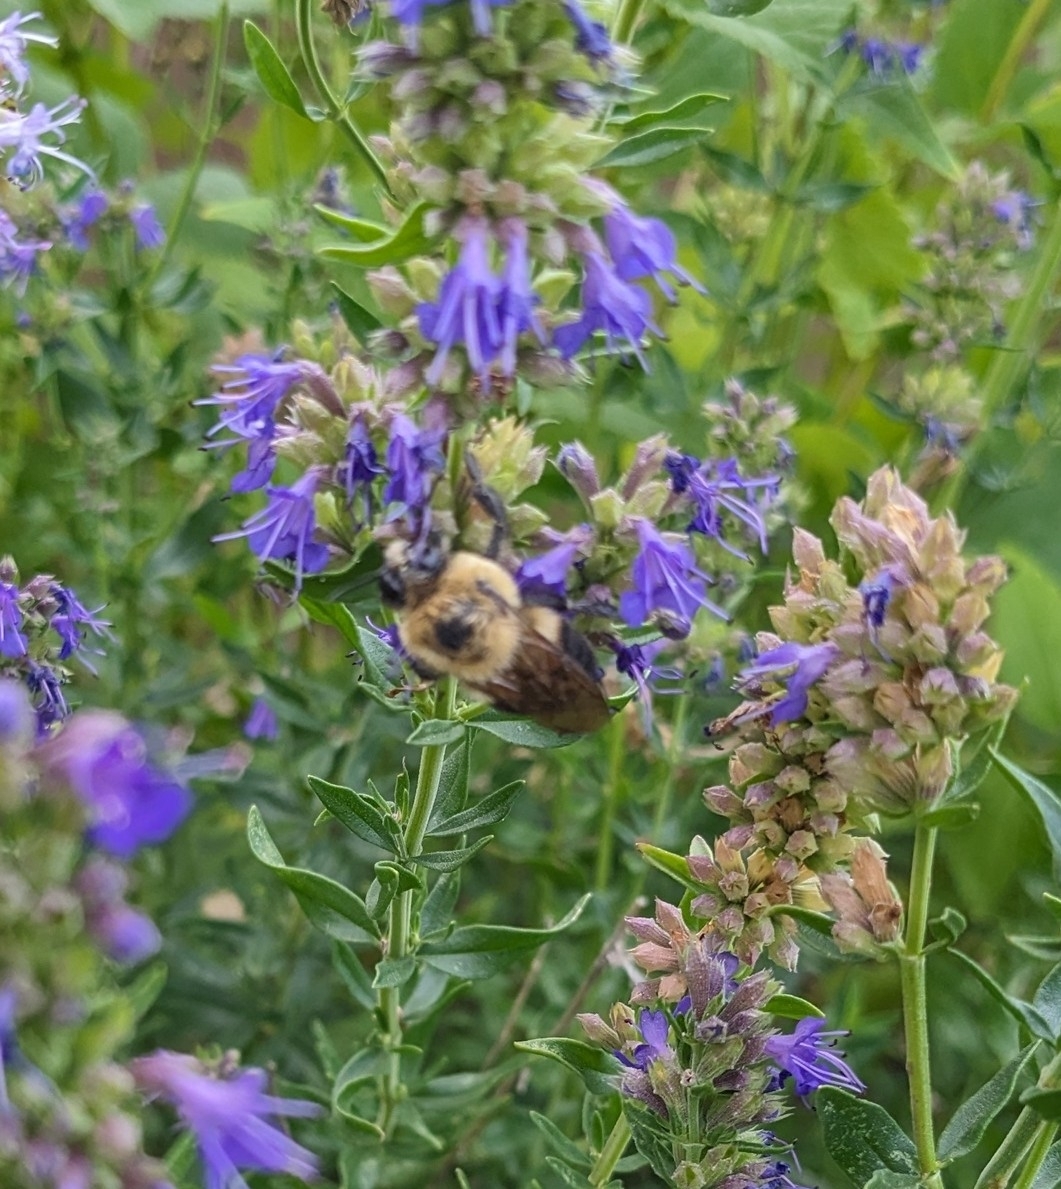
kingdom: Animalia
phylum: Arthropoda
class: Insecta
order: Hymenoptera
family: Apidae
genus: Bombus
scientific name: Bombus griseocollis
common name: Brown-belted bumble bee
